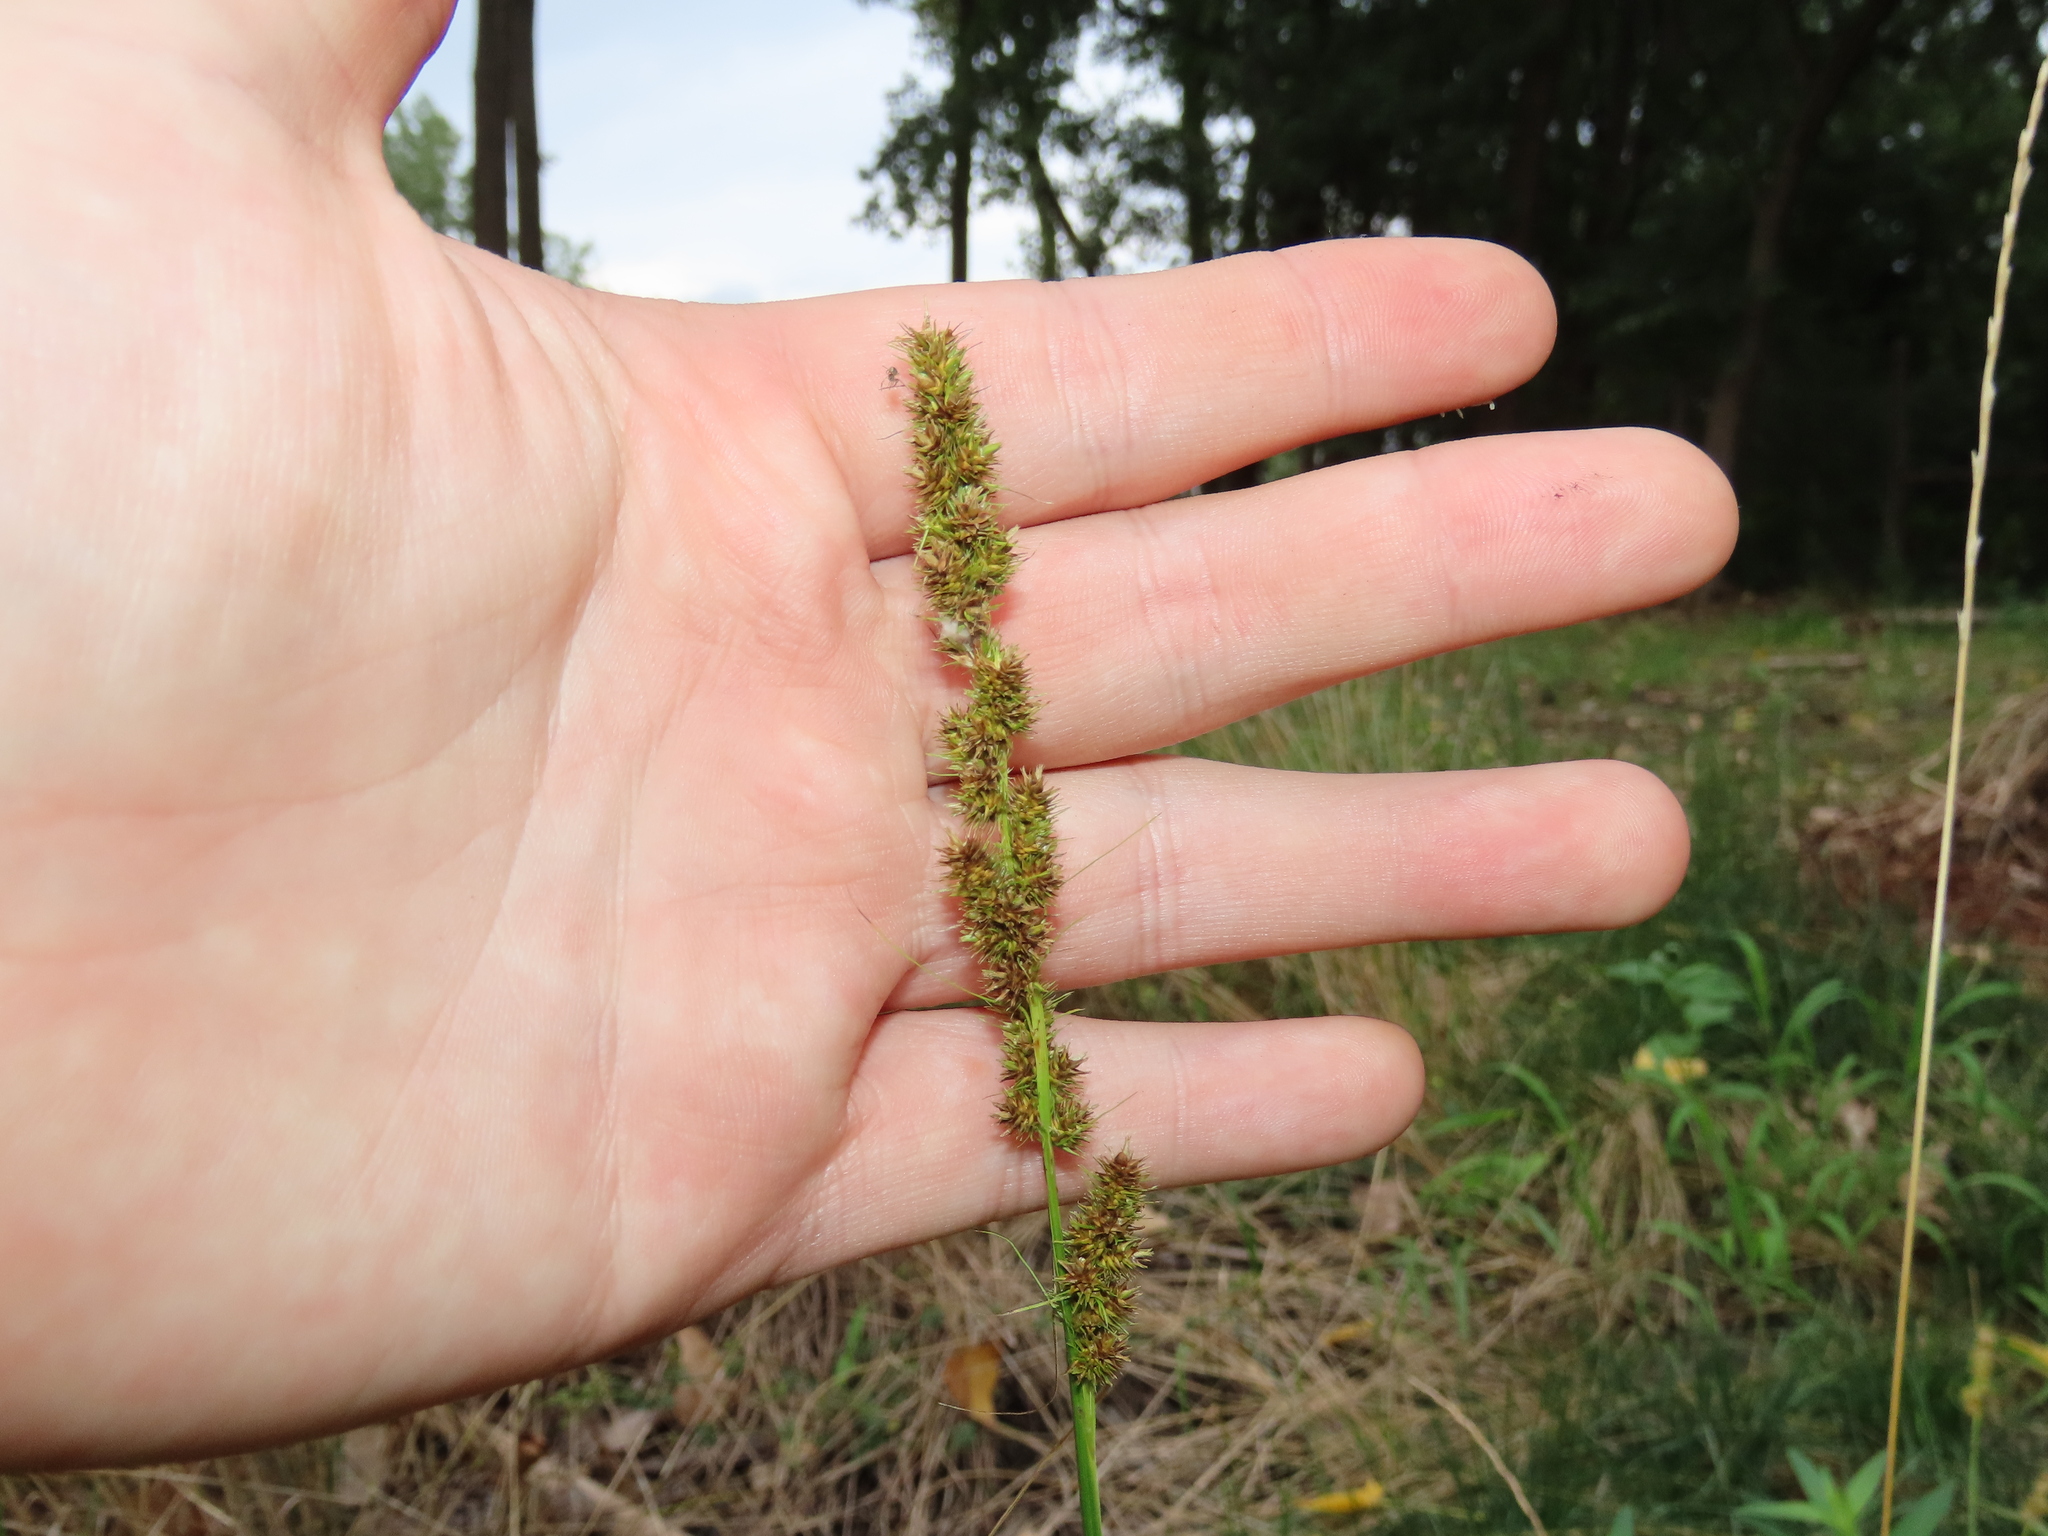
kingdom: Plantae
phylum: Tracheophyta
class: Liliopsida
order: Poales
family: Cyperaceae
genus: Carex
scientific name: Carex vulpinoidea
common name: American fox-sedge
